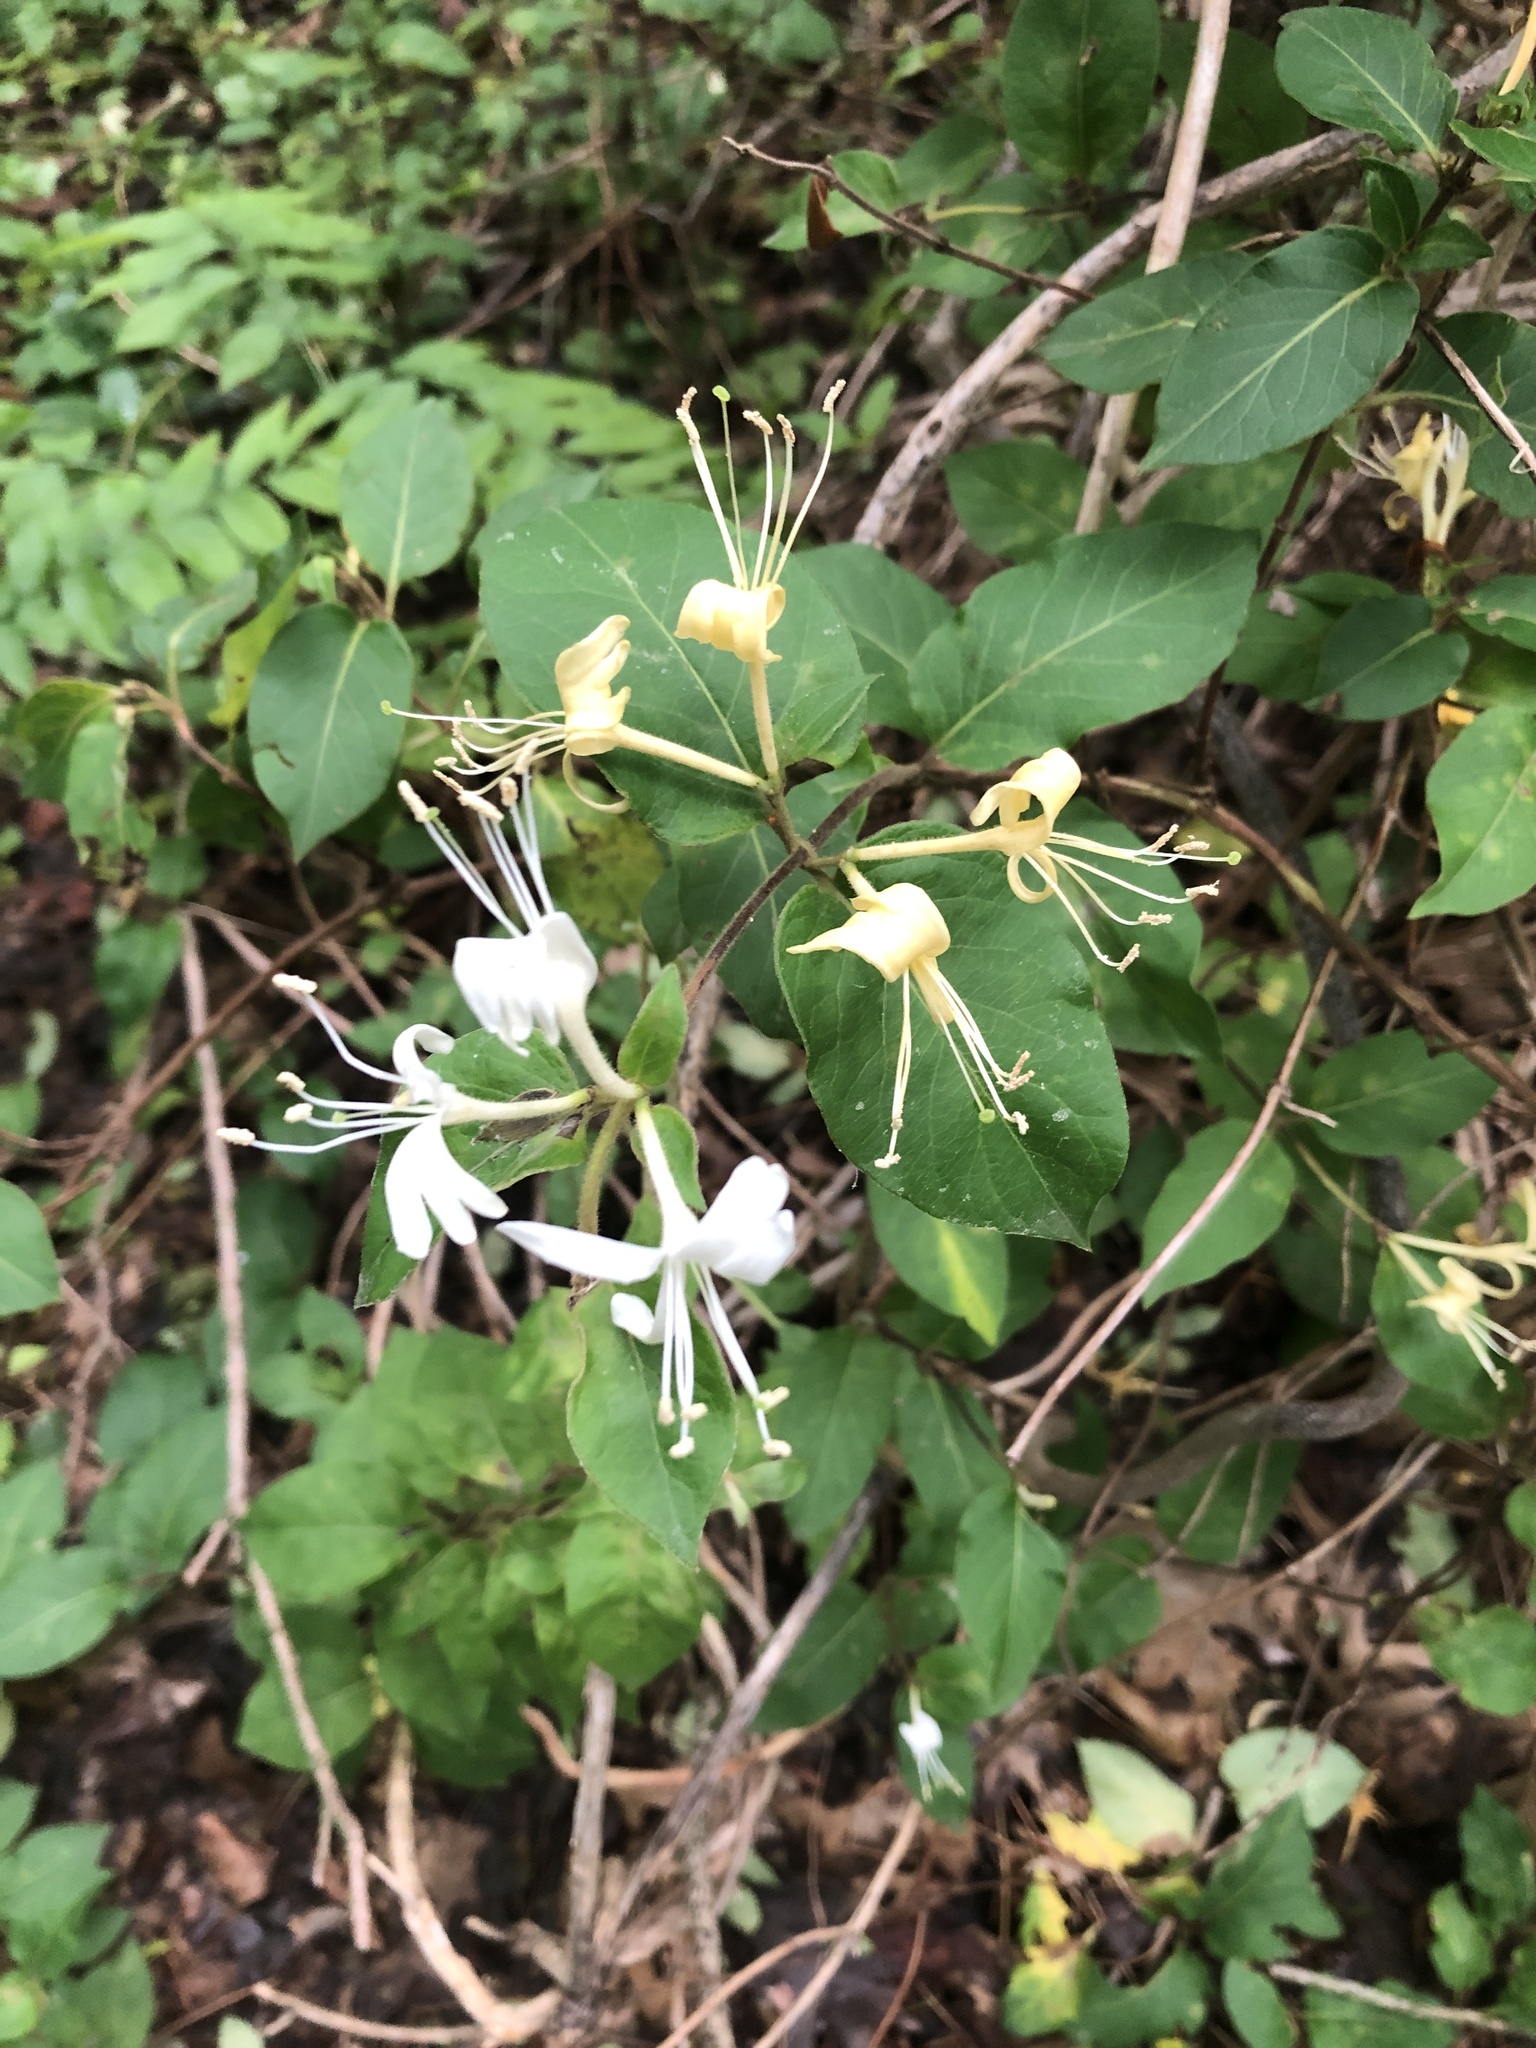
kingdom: Plantae
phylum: Tracheophyta
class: Magnoliopsida
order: Dipsacales
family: Caprifoliaceae
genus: Lonicera
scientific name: Lonicera japonica
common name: Japanese honeysuckle
